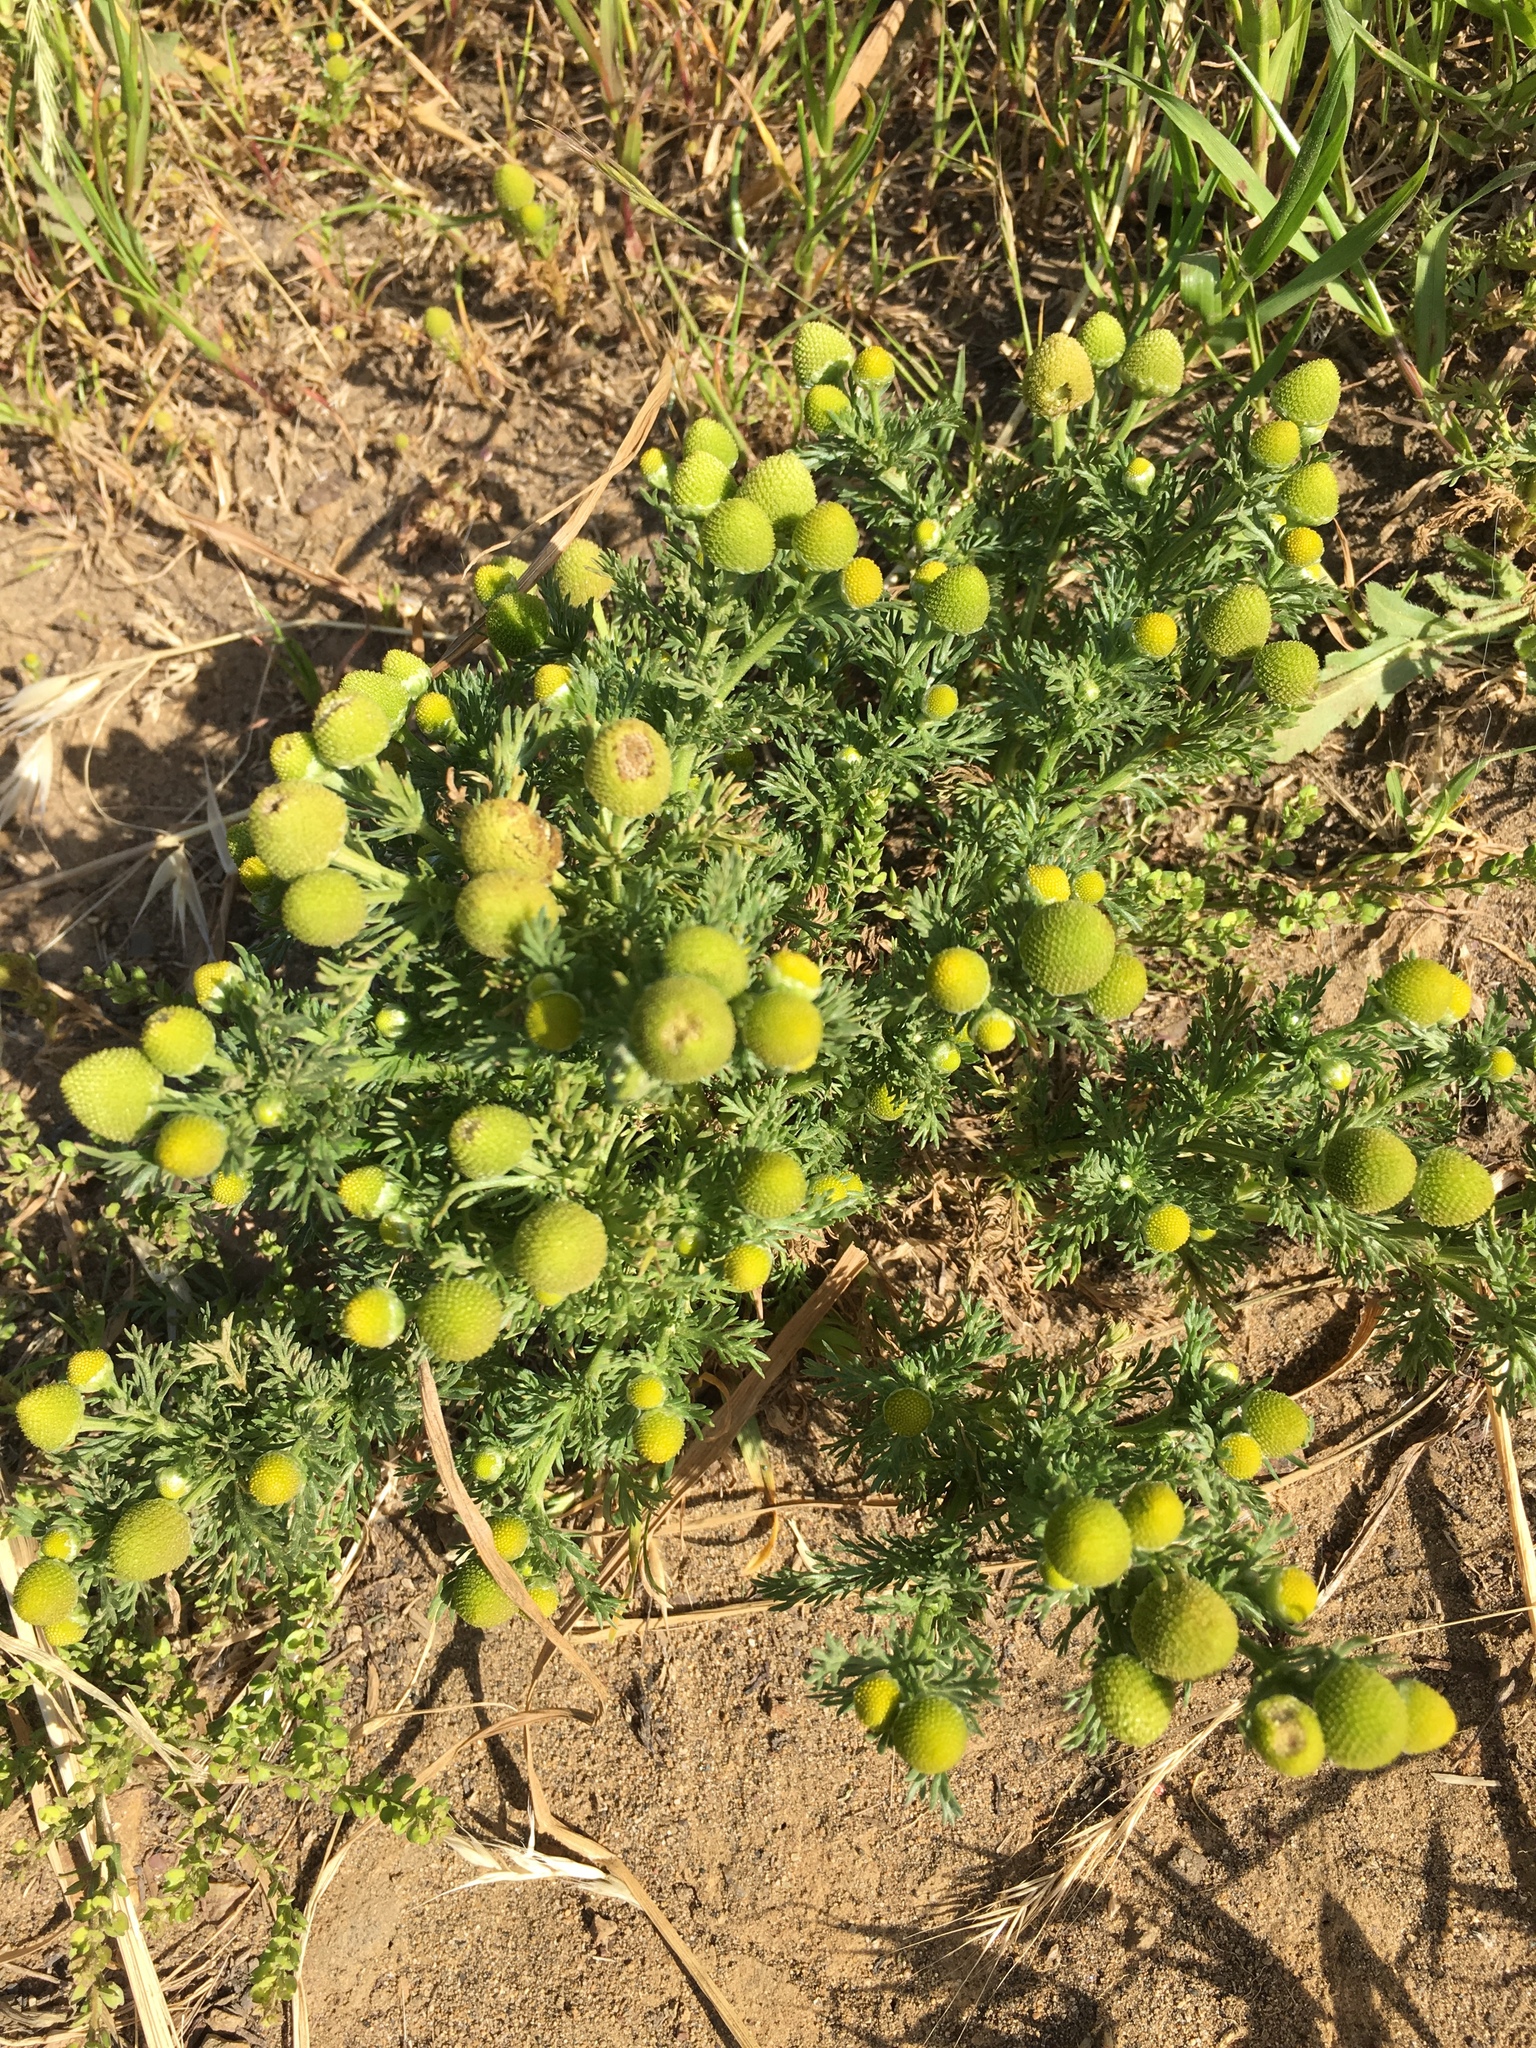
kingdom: Plantae
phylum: Tracheophyta
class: Magnoliopsida
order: Asterales
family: Asteraceae
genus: Matricaria
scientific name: Matricaria discoidea
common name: Disc mayweed
